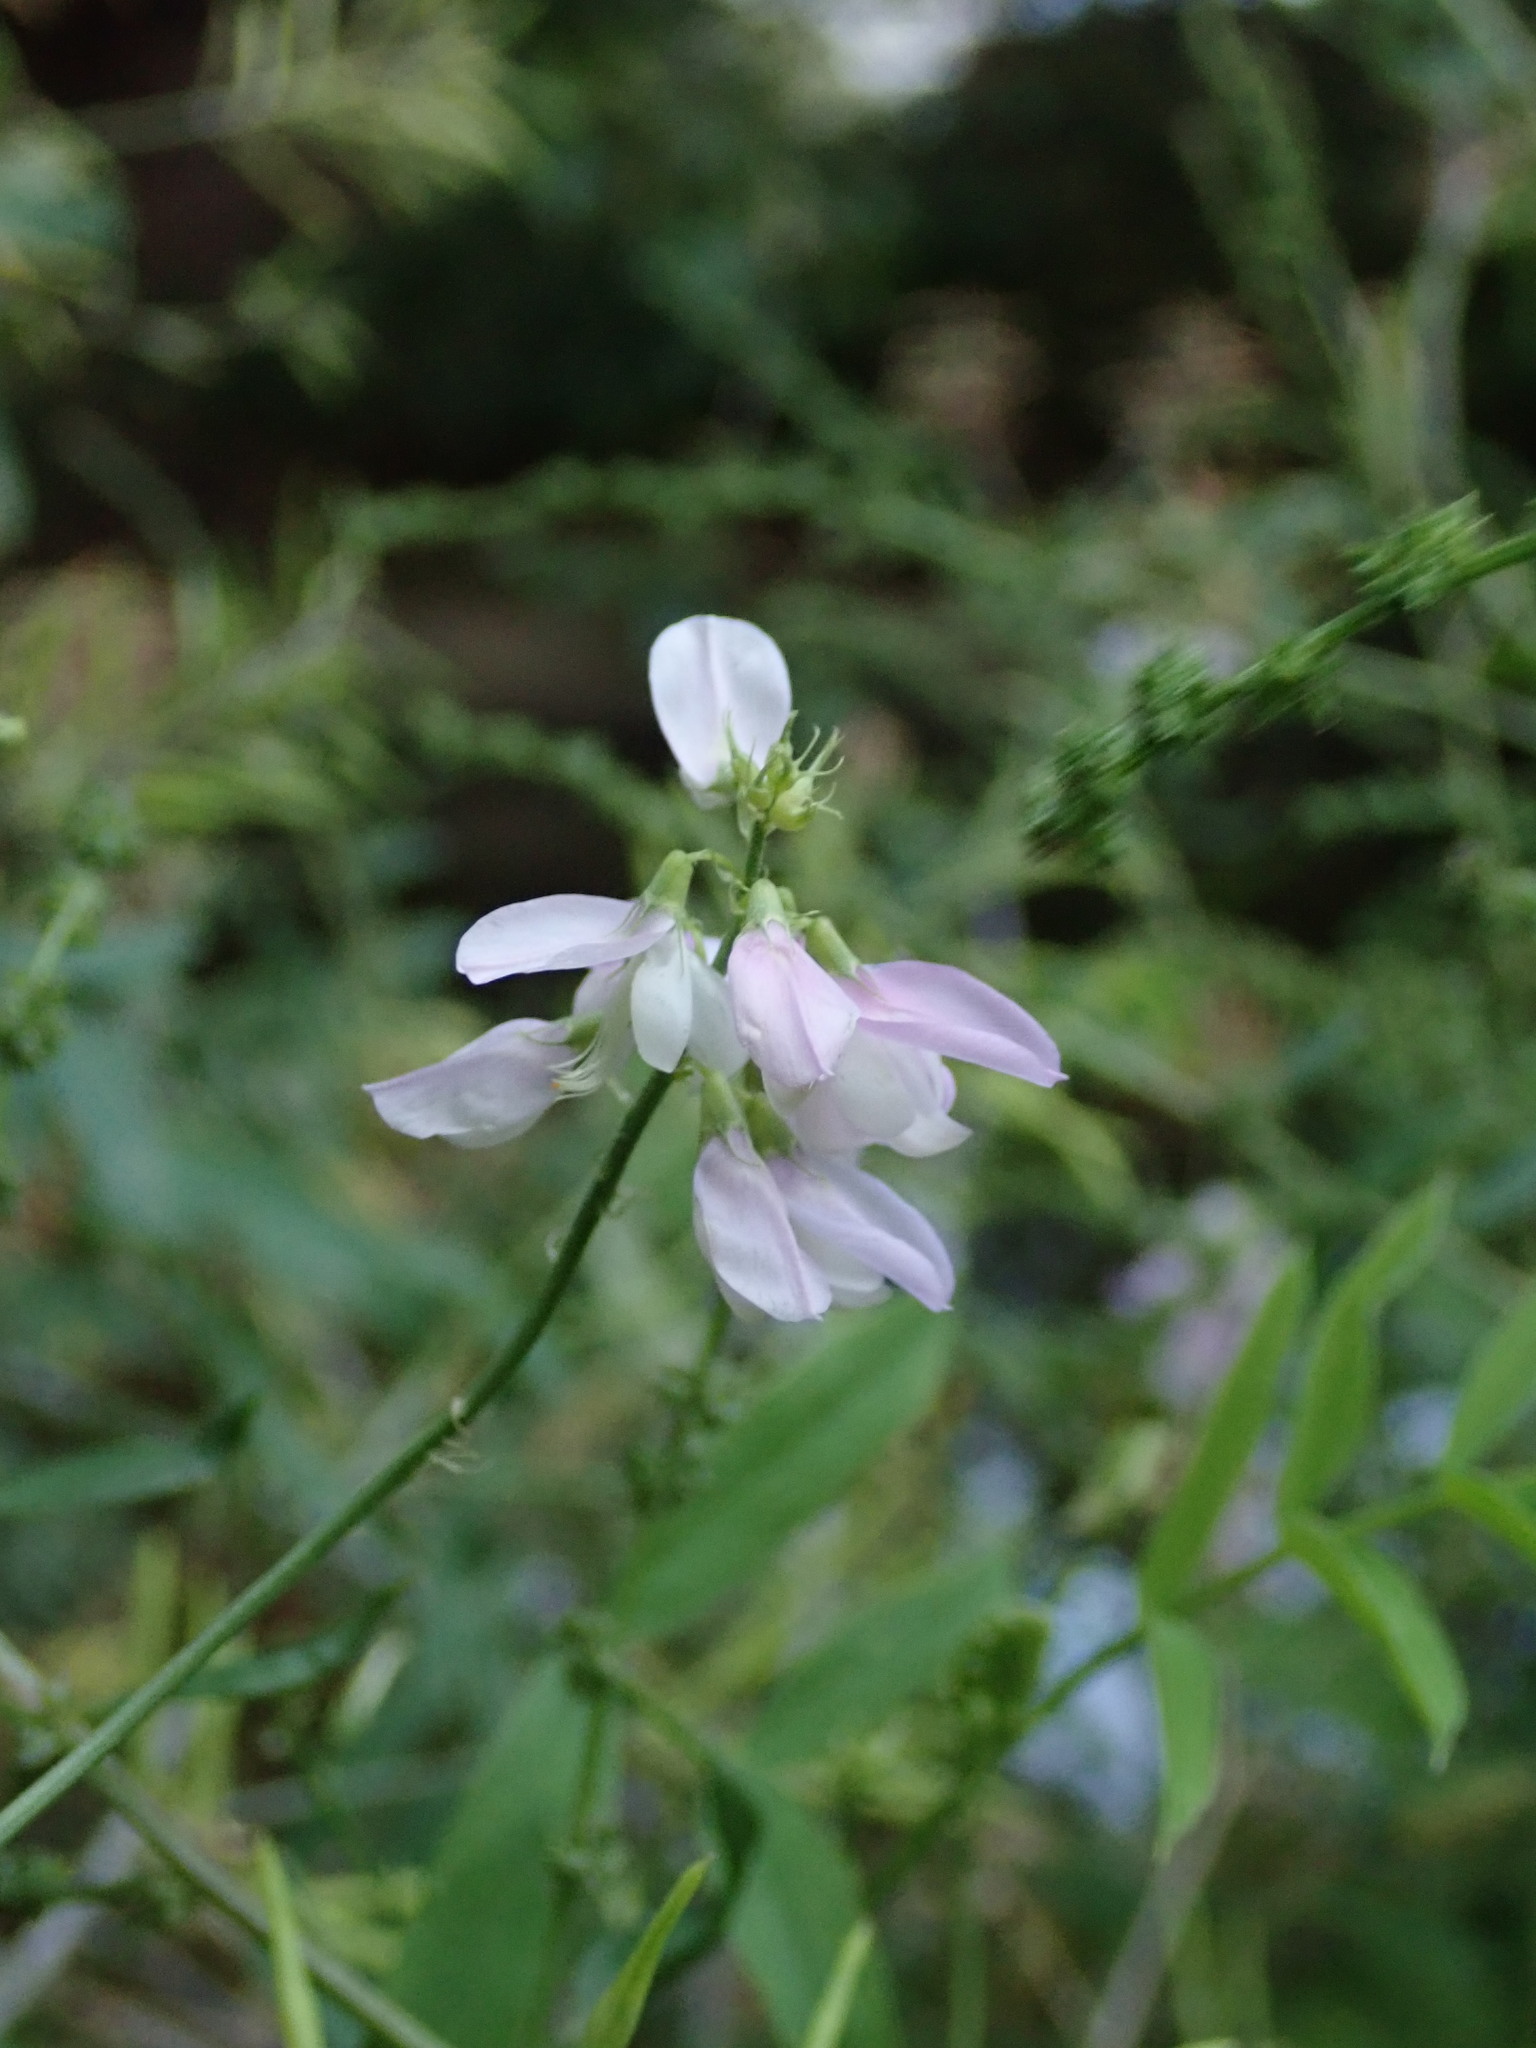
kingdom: Plantae
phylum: Tracheophyta
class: Magnoliopsida
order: Fabales
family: Fabaceae
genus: Galega
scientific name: Galega officinalis
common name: Goat's-rue
